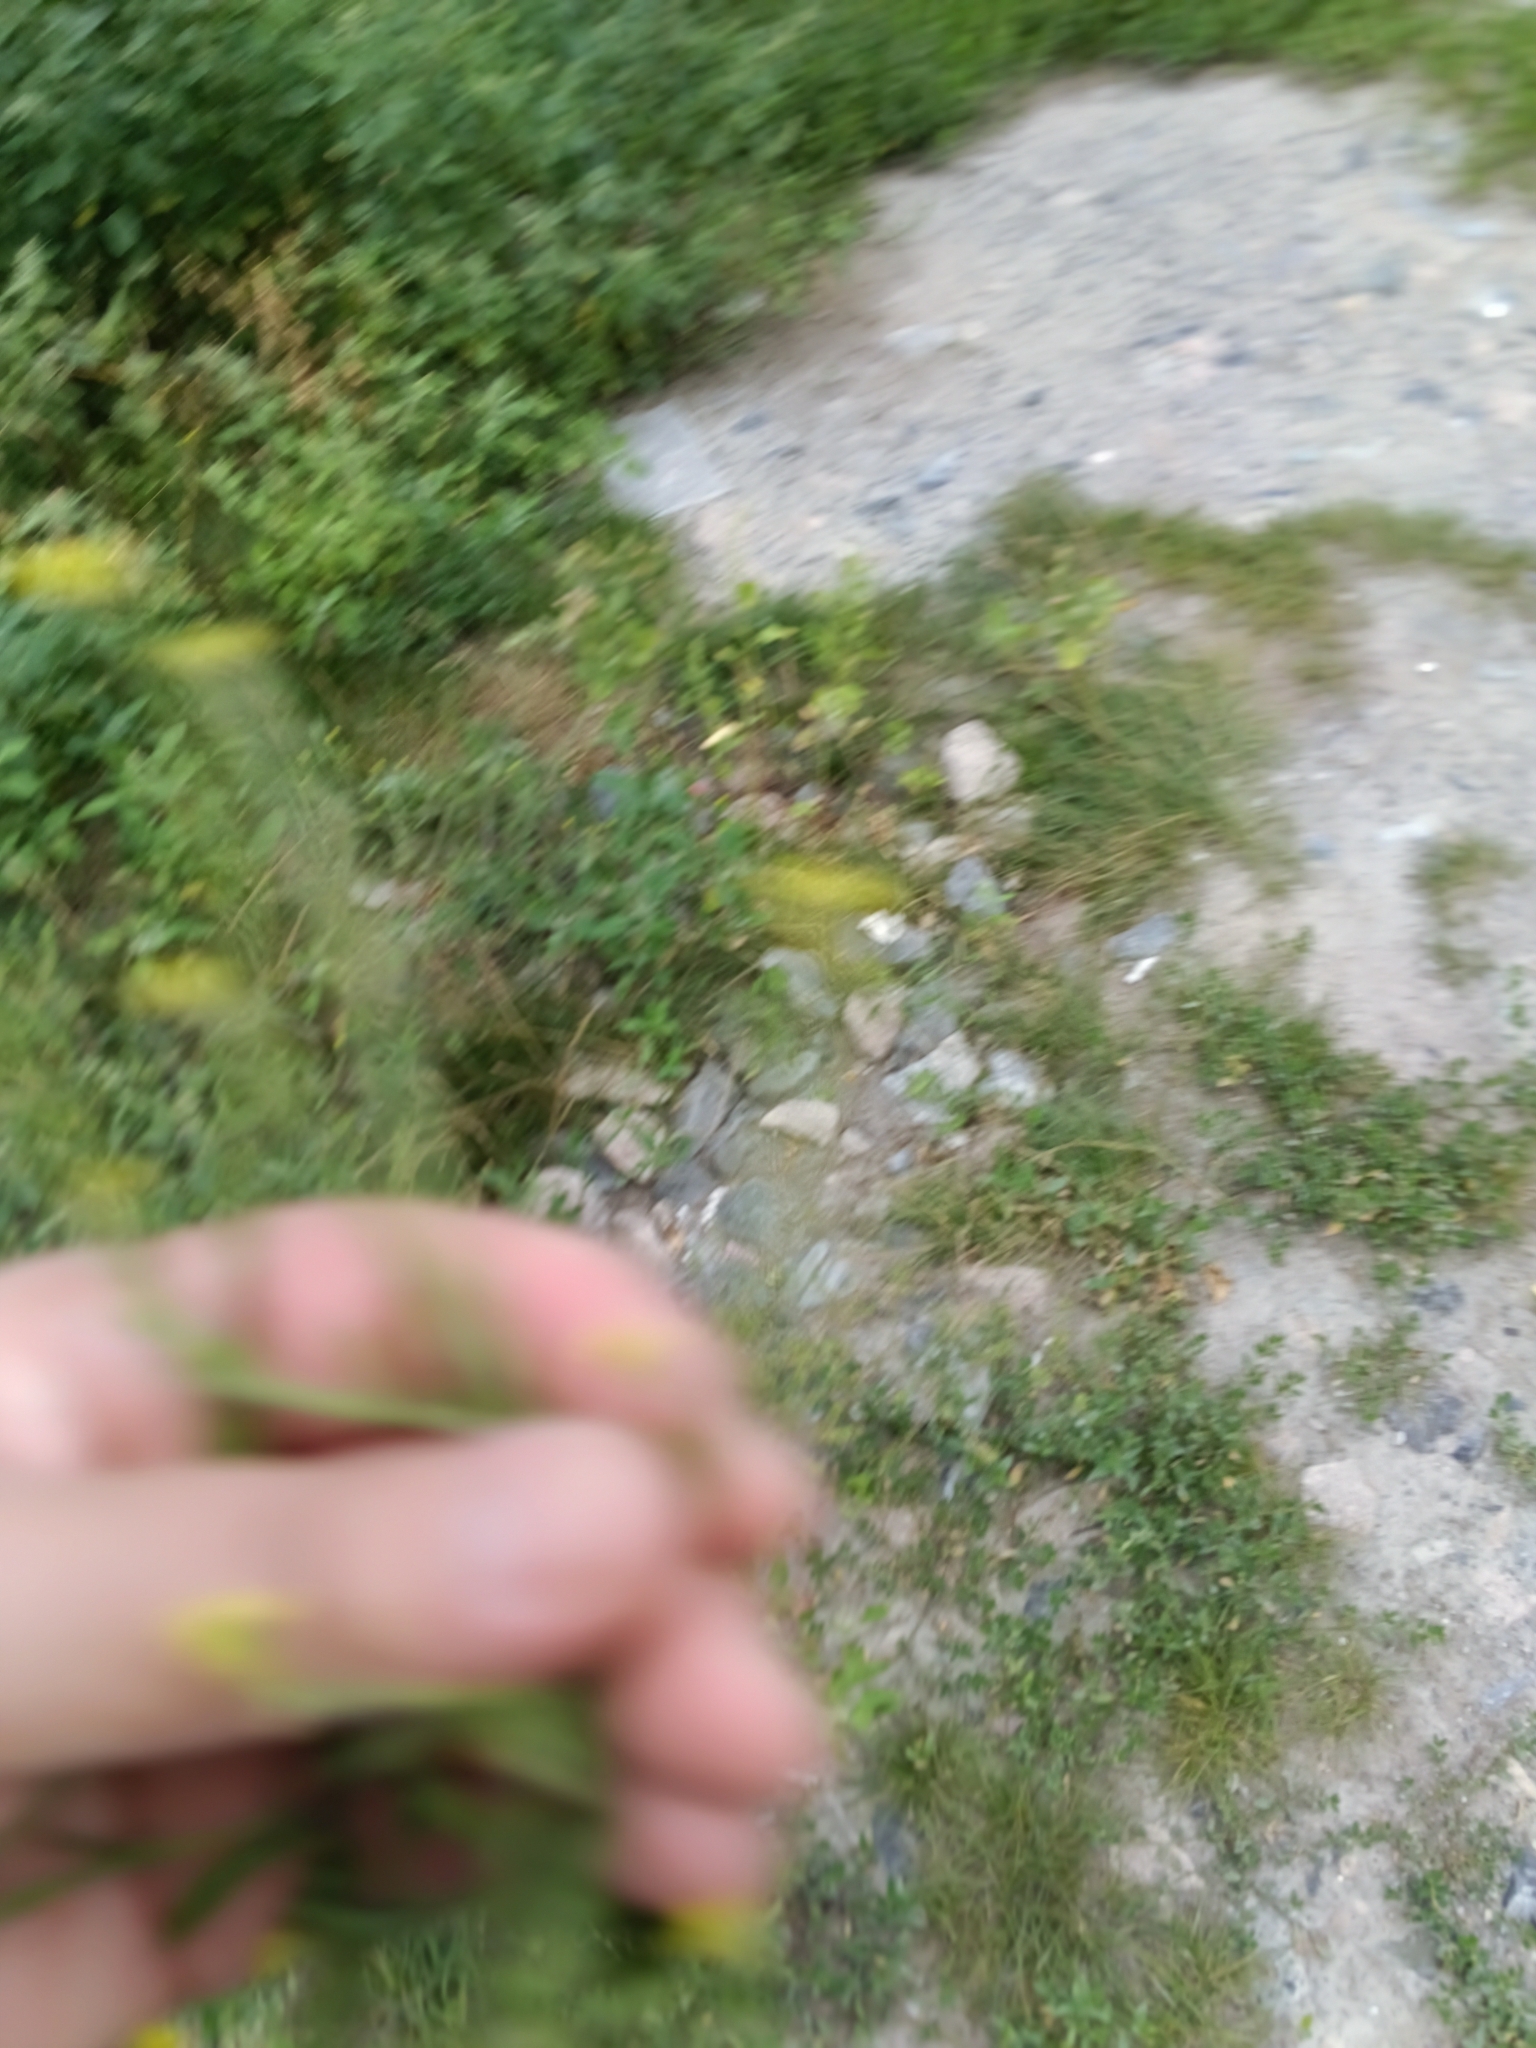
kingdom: Plantae
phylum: Tracheophyta
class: Magnoliopsida
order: Brassicales
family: Brassicaceae
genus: Sisymbrium
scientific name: Sisymbrium officinale
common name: Hedge mustard
